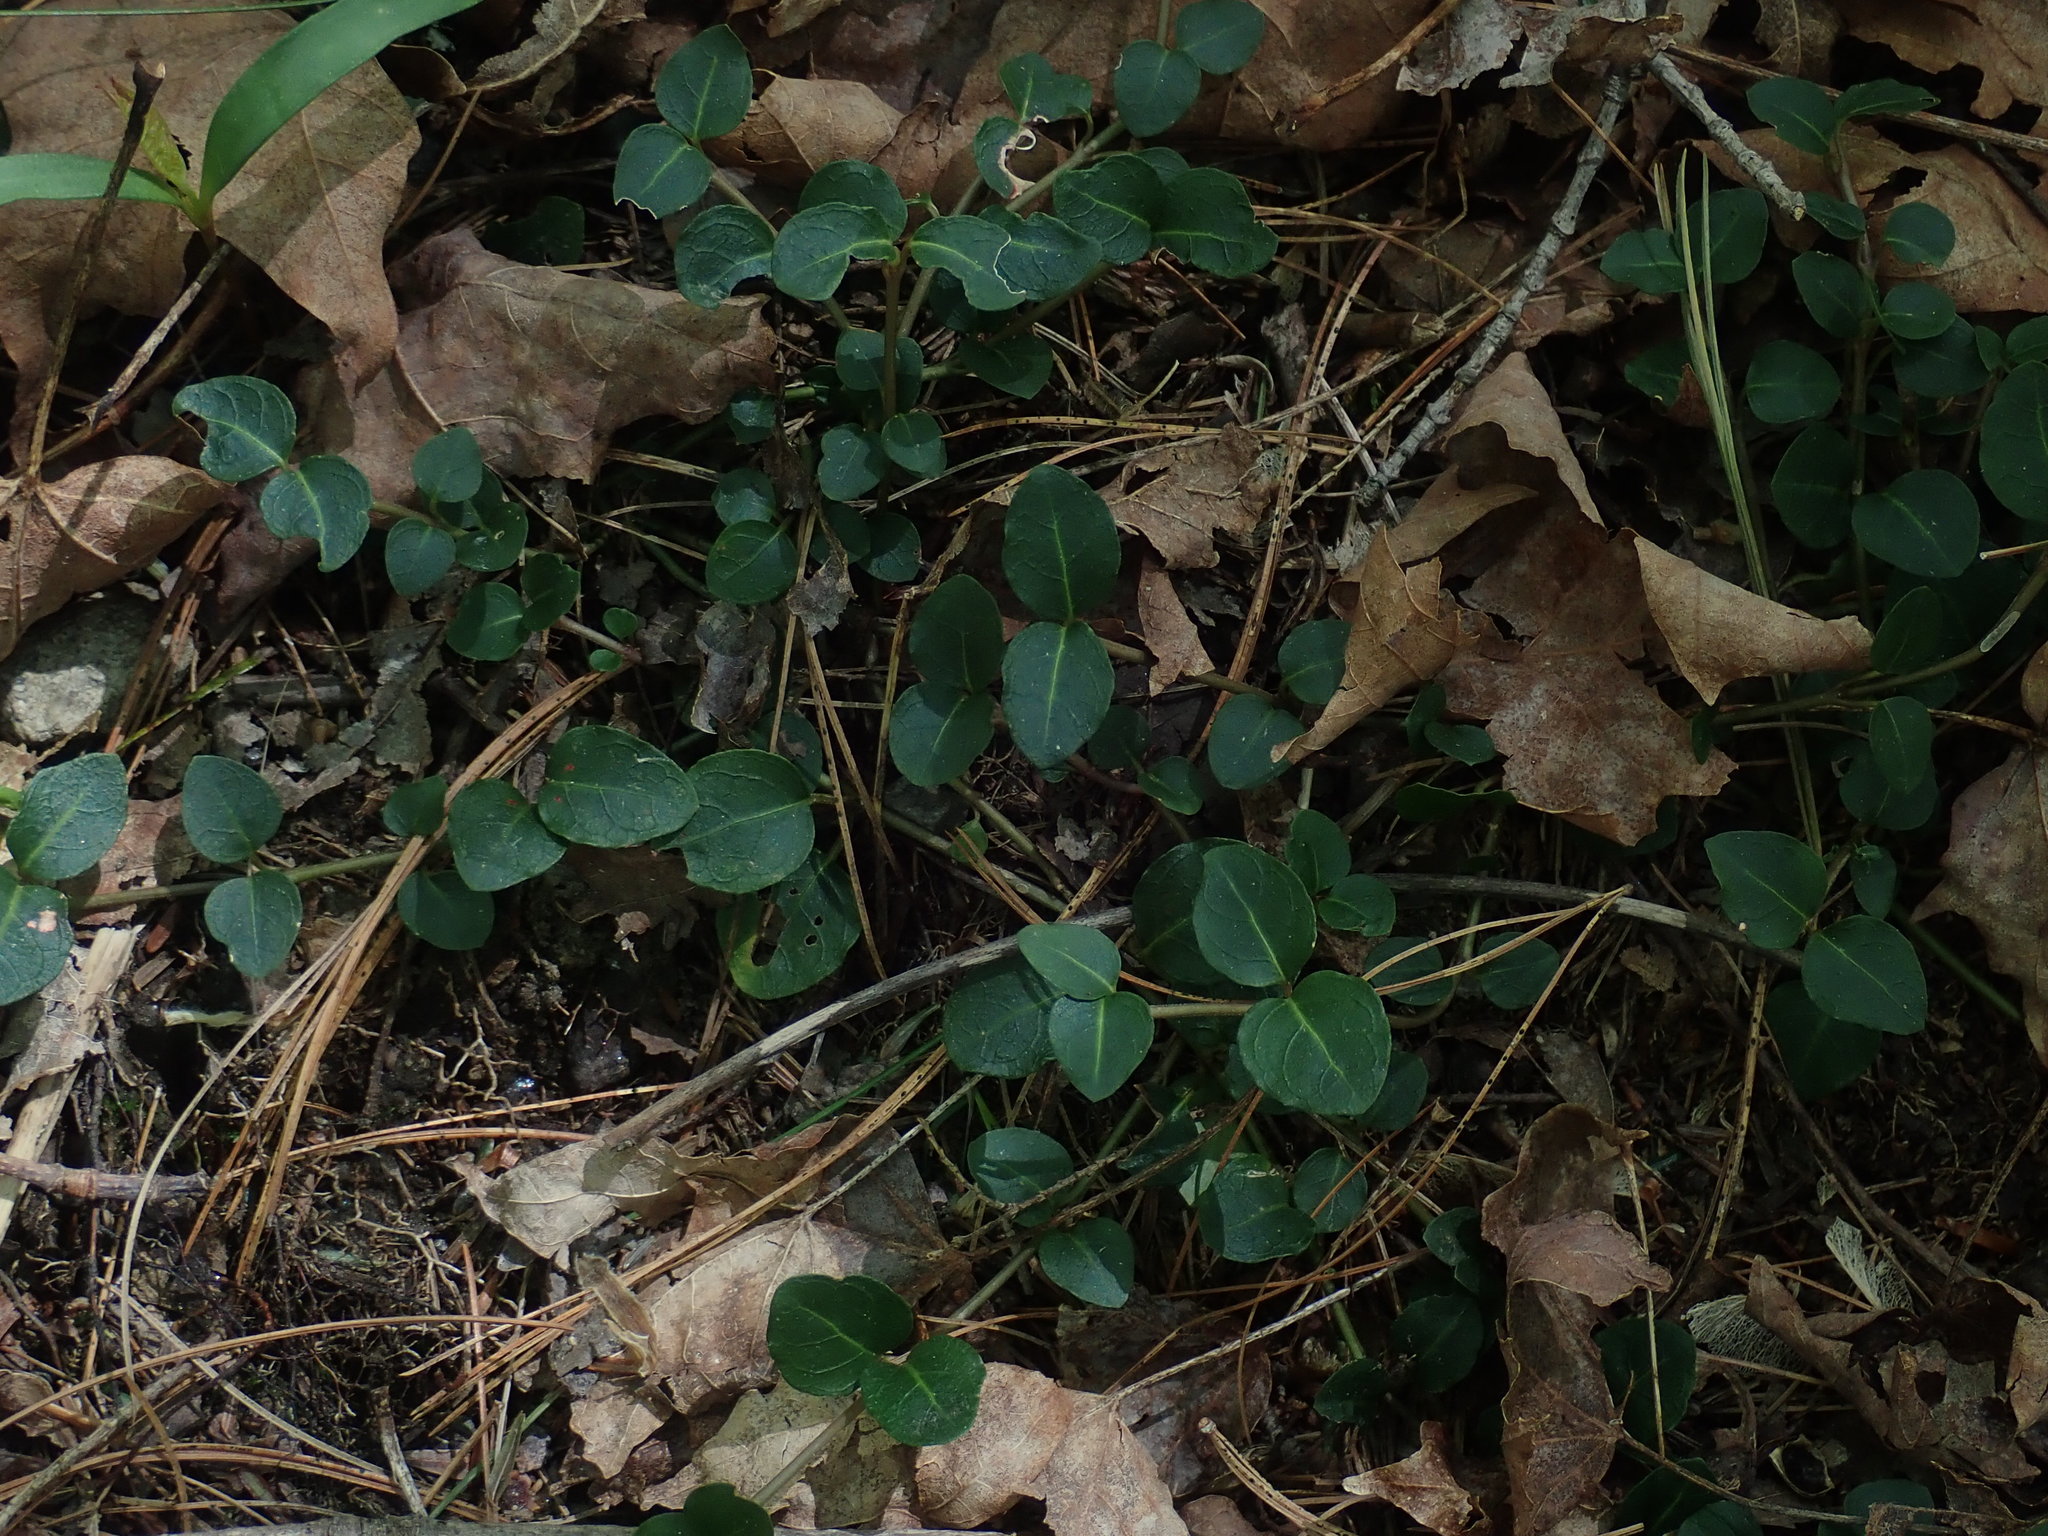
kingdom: Plantae
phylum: Tracheophyta
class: Magnoliopsida
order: Gentianales
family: Rubiaceae
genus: Mitchella
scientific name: Mitchella repens
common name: Partridge-berry
